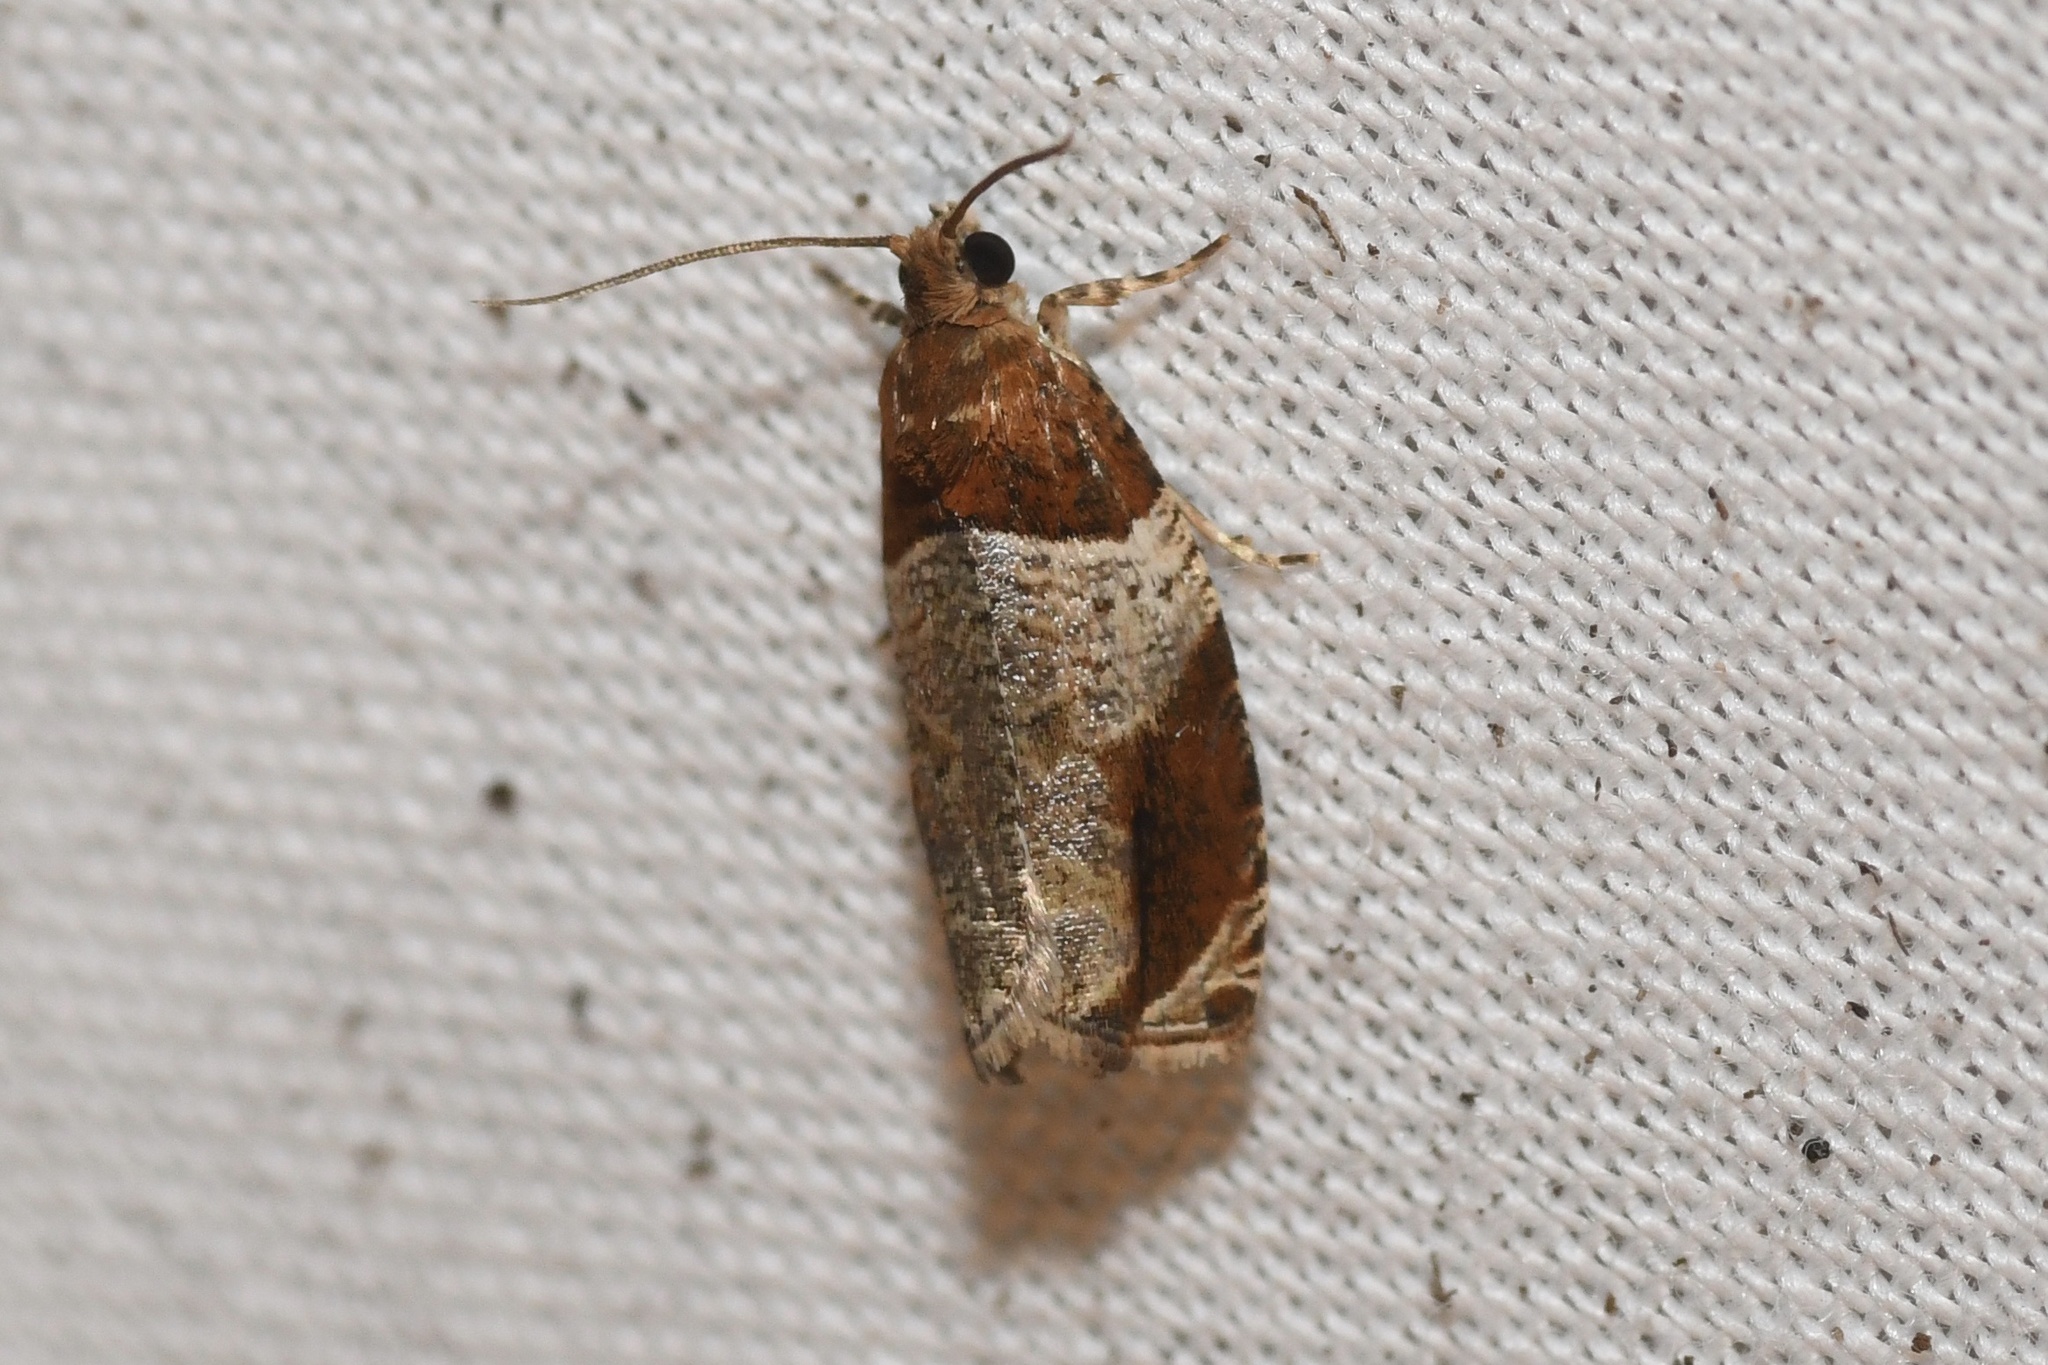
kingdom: Animalia
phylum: Arthropoda
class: Insecta
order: Lepidoptera
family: Tortricidae
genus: Olethreutes
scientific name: Olethreutes ferriferana
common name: Hydrangea leaftier moth
